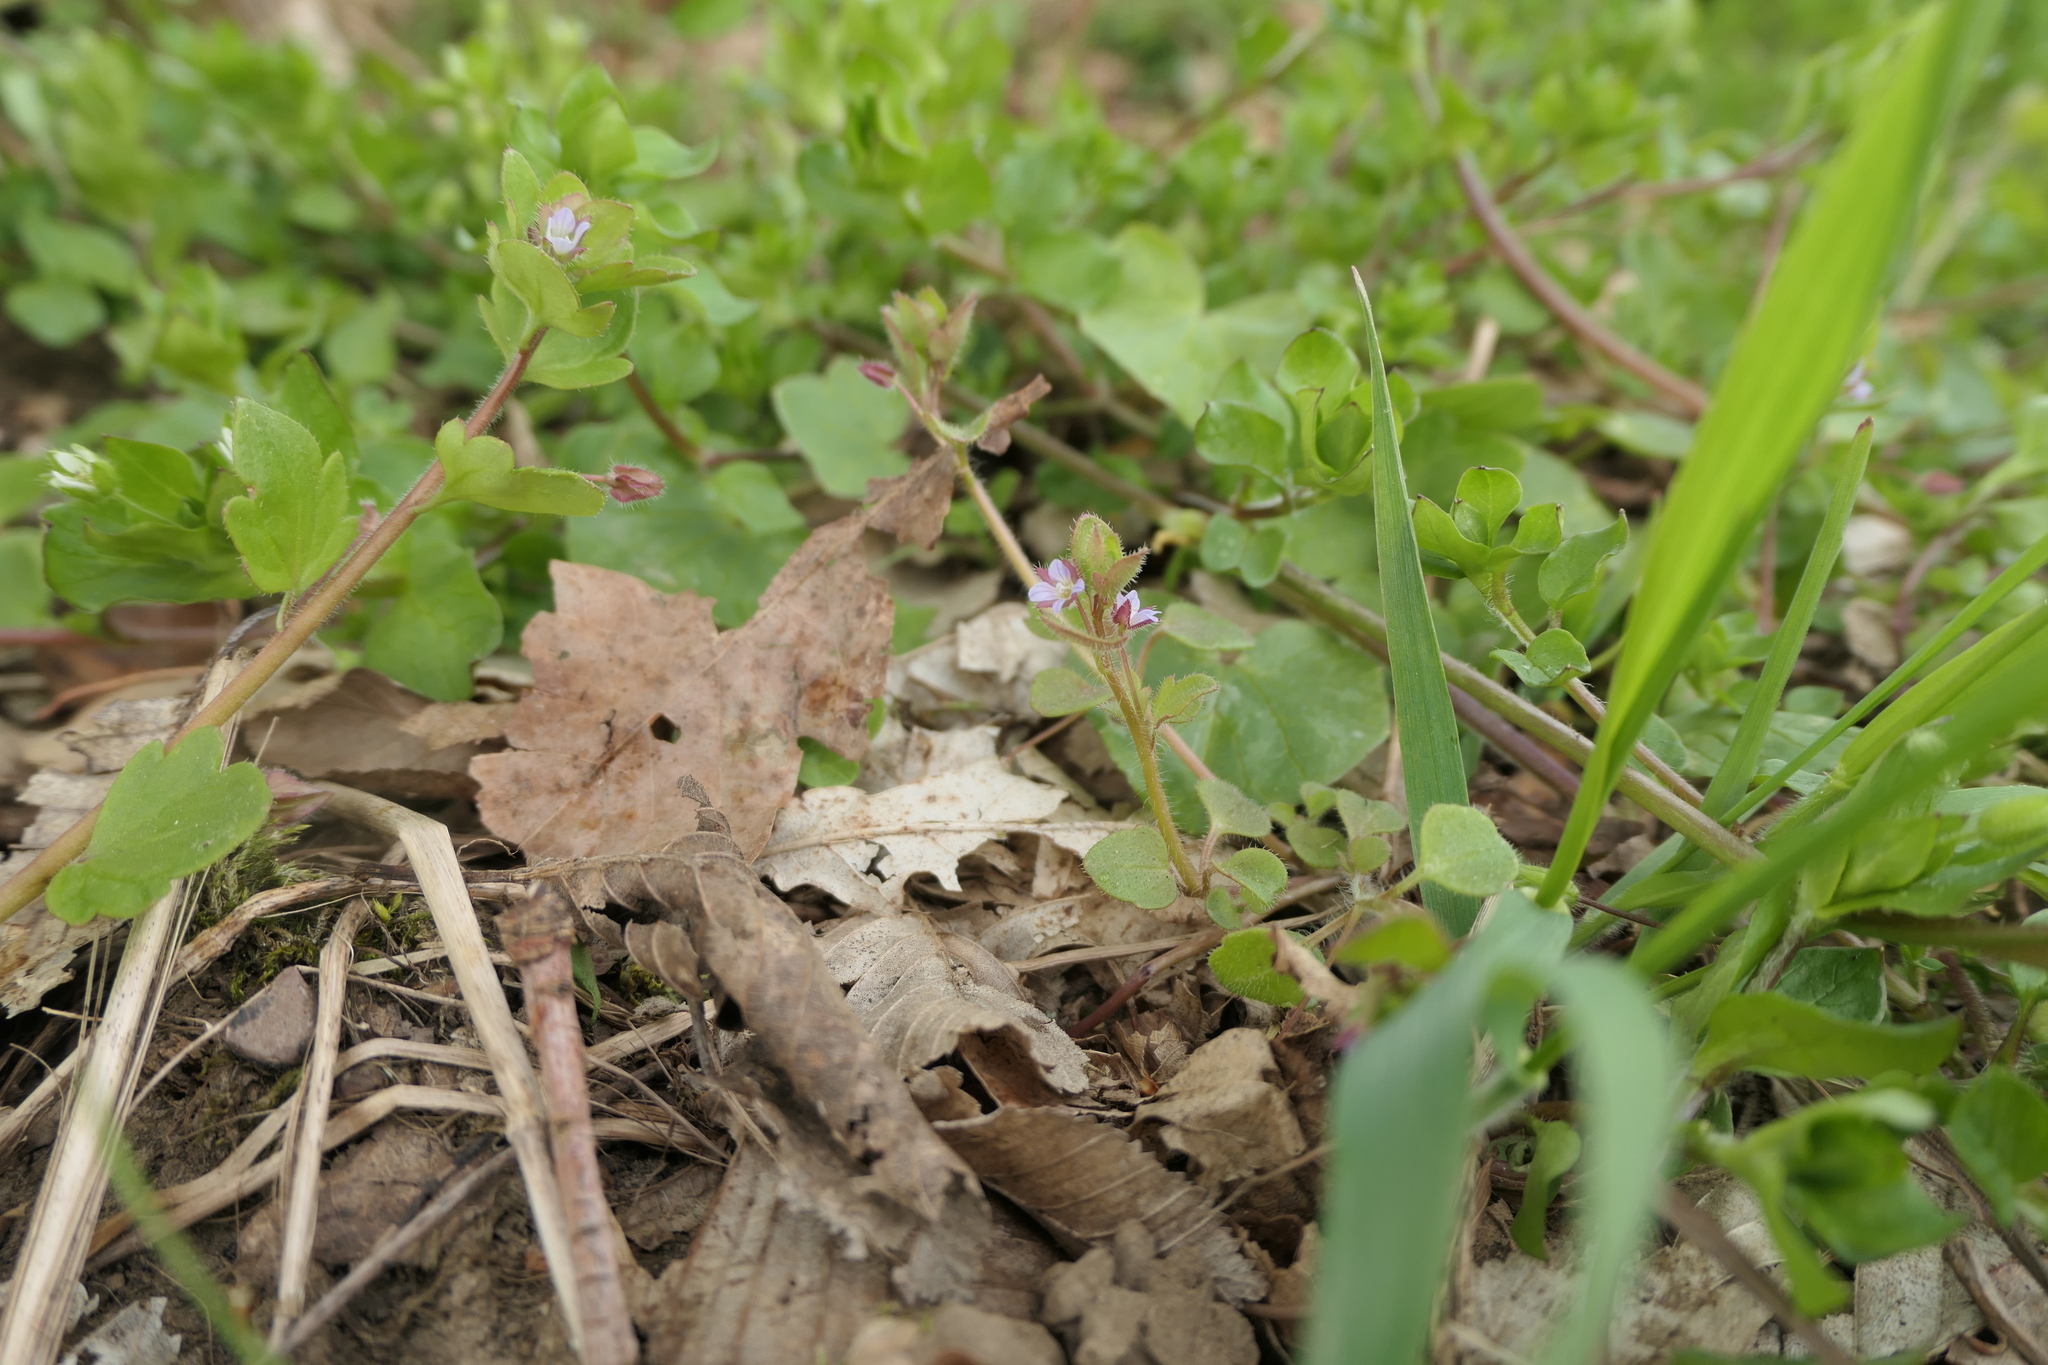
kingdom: Plantae
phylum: Tracheophyta
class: Magnoliopsida
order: Lamiales
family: Plantaginaceae
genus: Veronica
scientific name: Veronica sublobata
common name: False ivy-leaved speedwell
